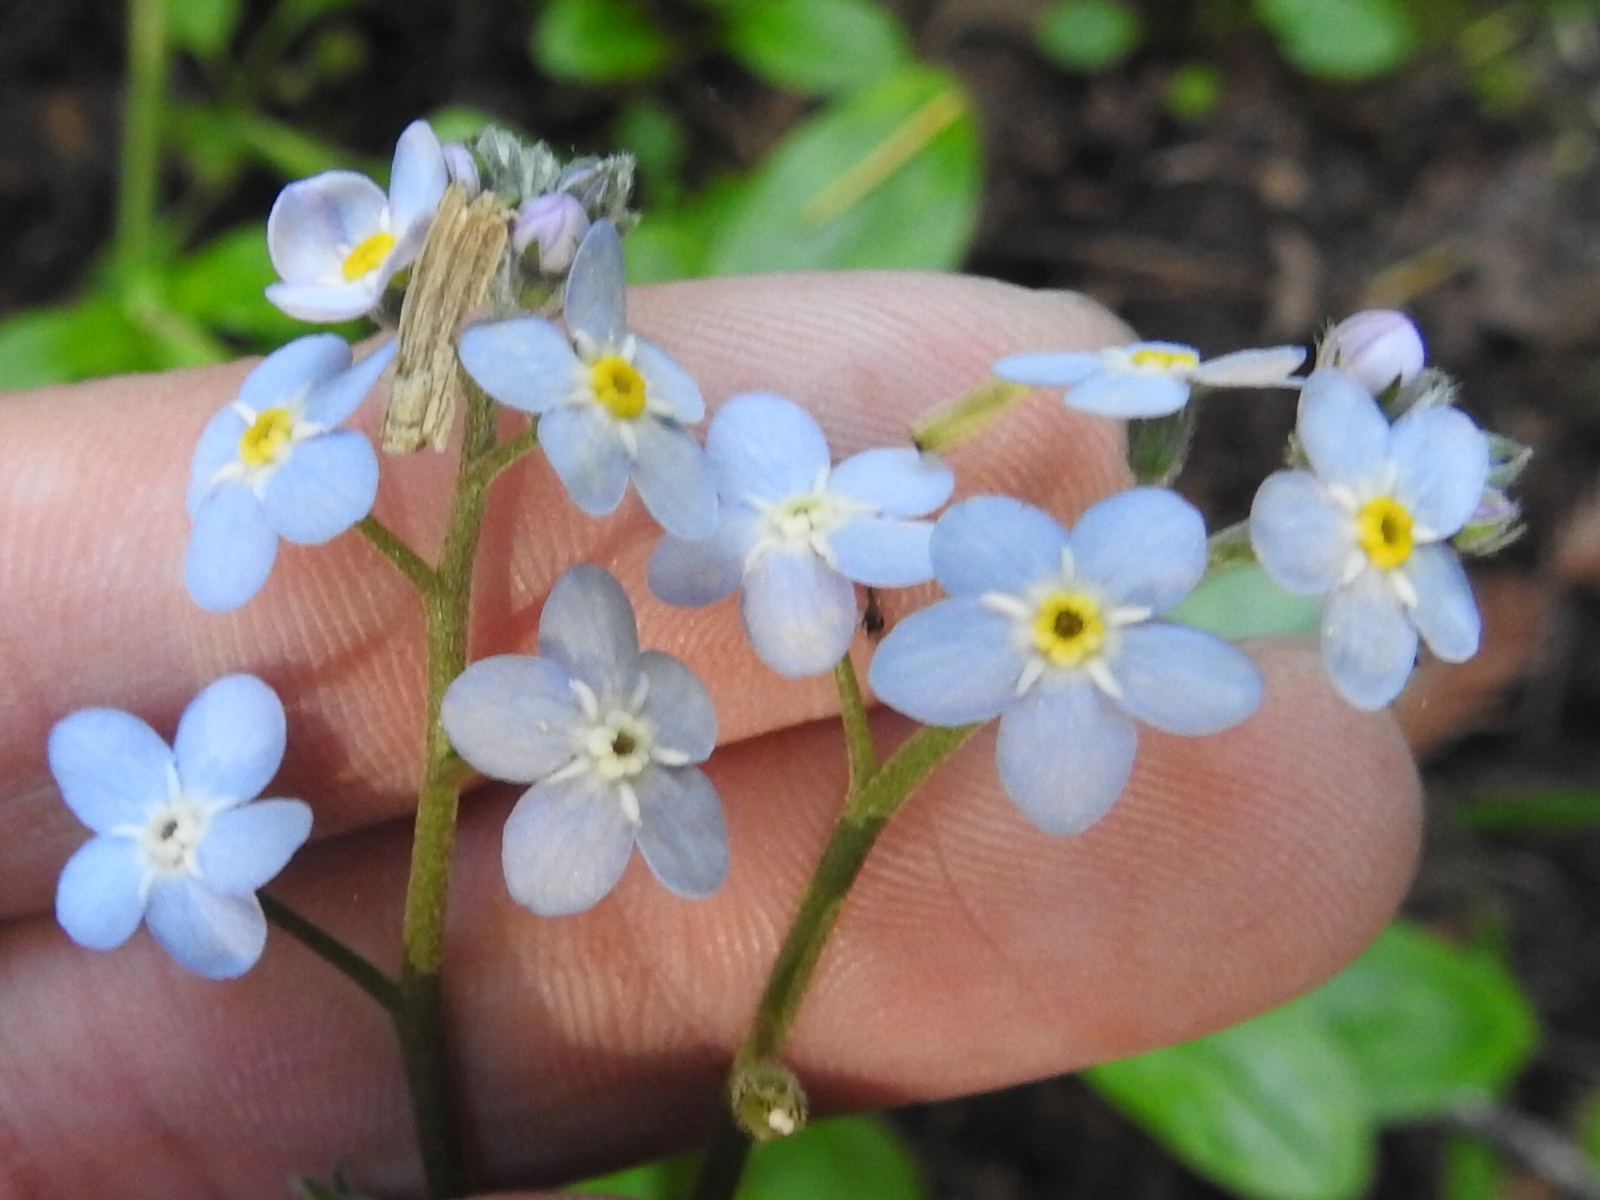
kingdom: Plantae
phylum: Tracheophyta
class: Magnoliopsida
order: Boraginales
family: Boraginaceae
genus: Myosotis
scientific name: Myosotis latifolia
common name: Broadleaf forget-me-not
